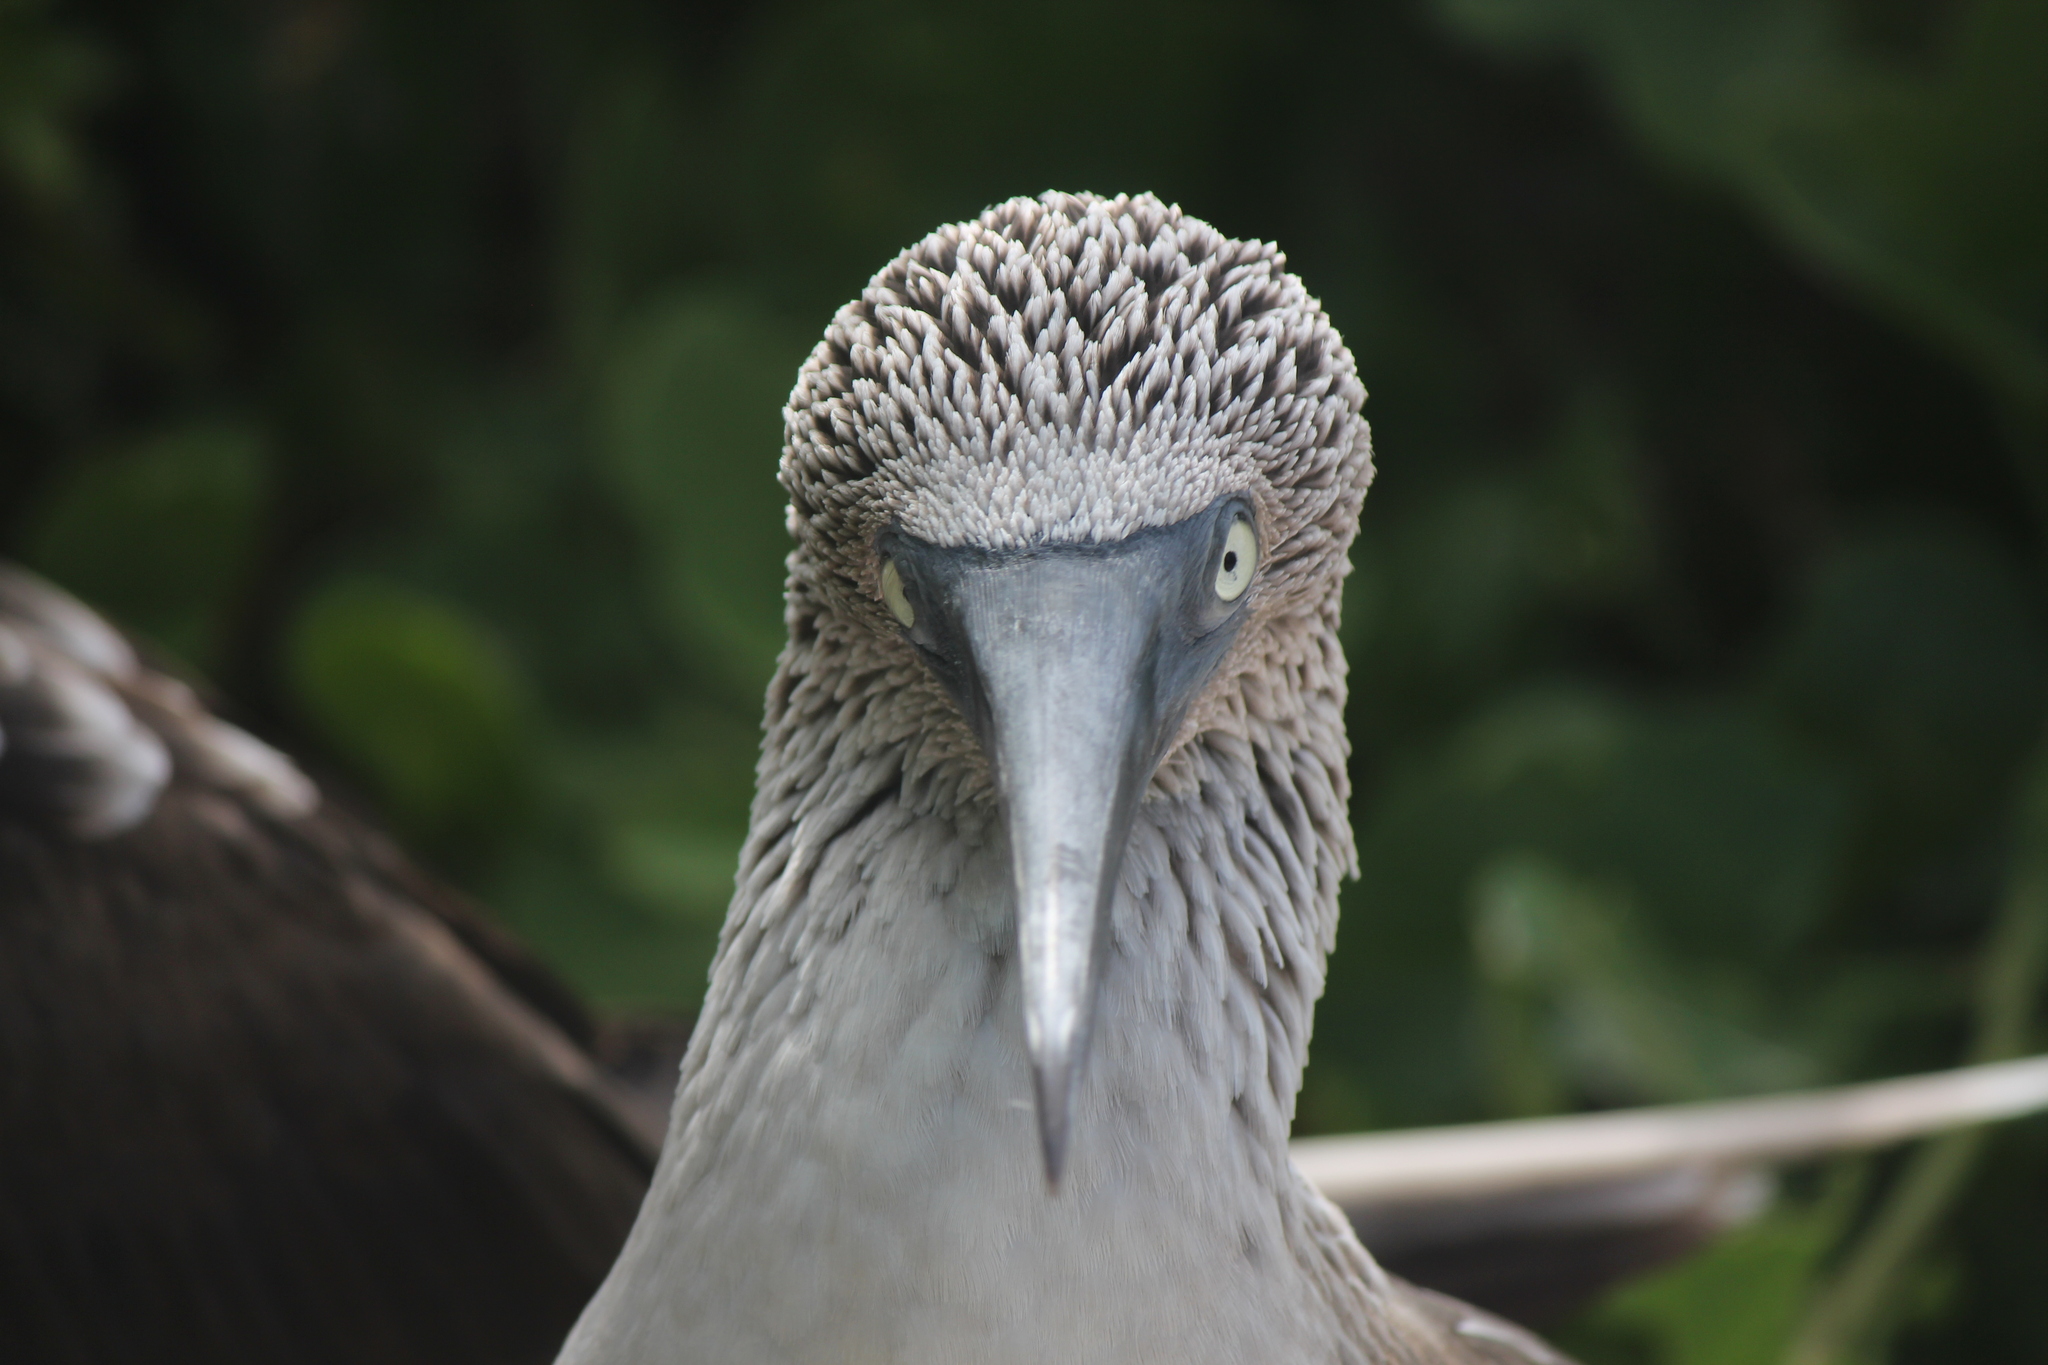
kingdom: Animalia
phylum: Chordata
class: Aves
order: Suliformes
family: Sulidae
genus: Sula
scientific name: Sula nebouxii
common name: Blue-footed booby
